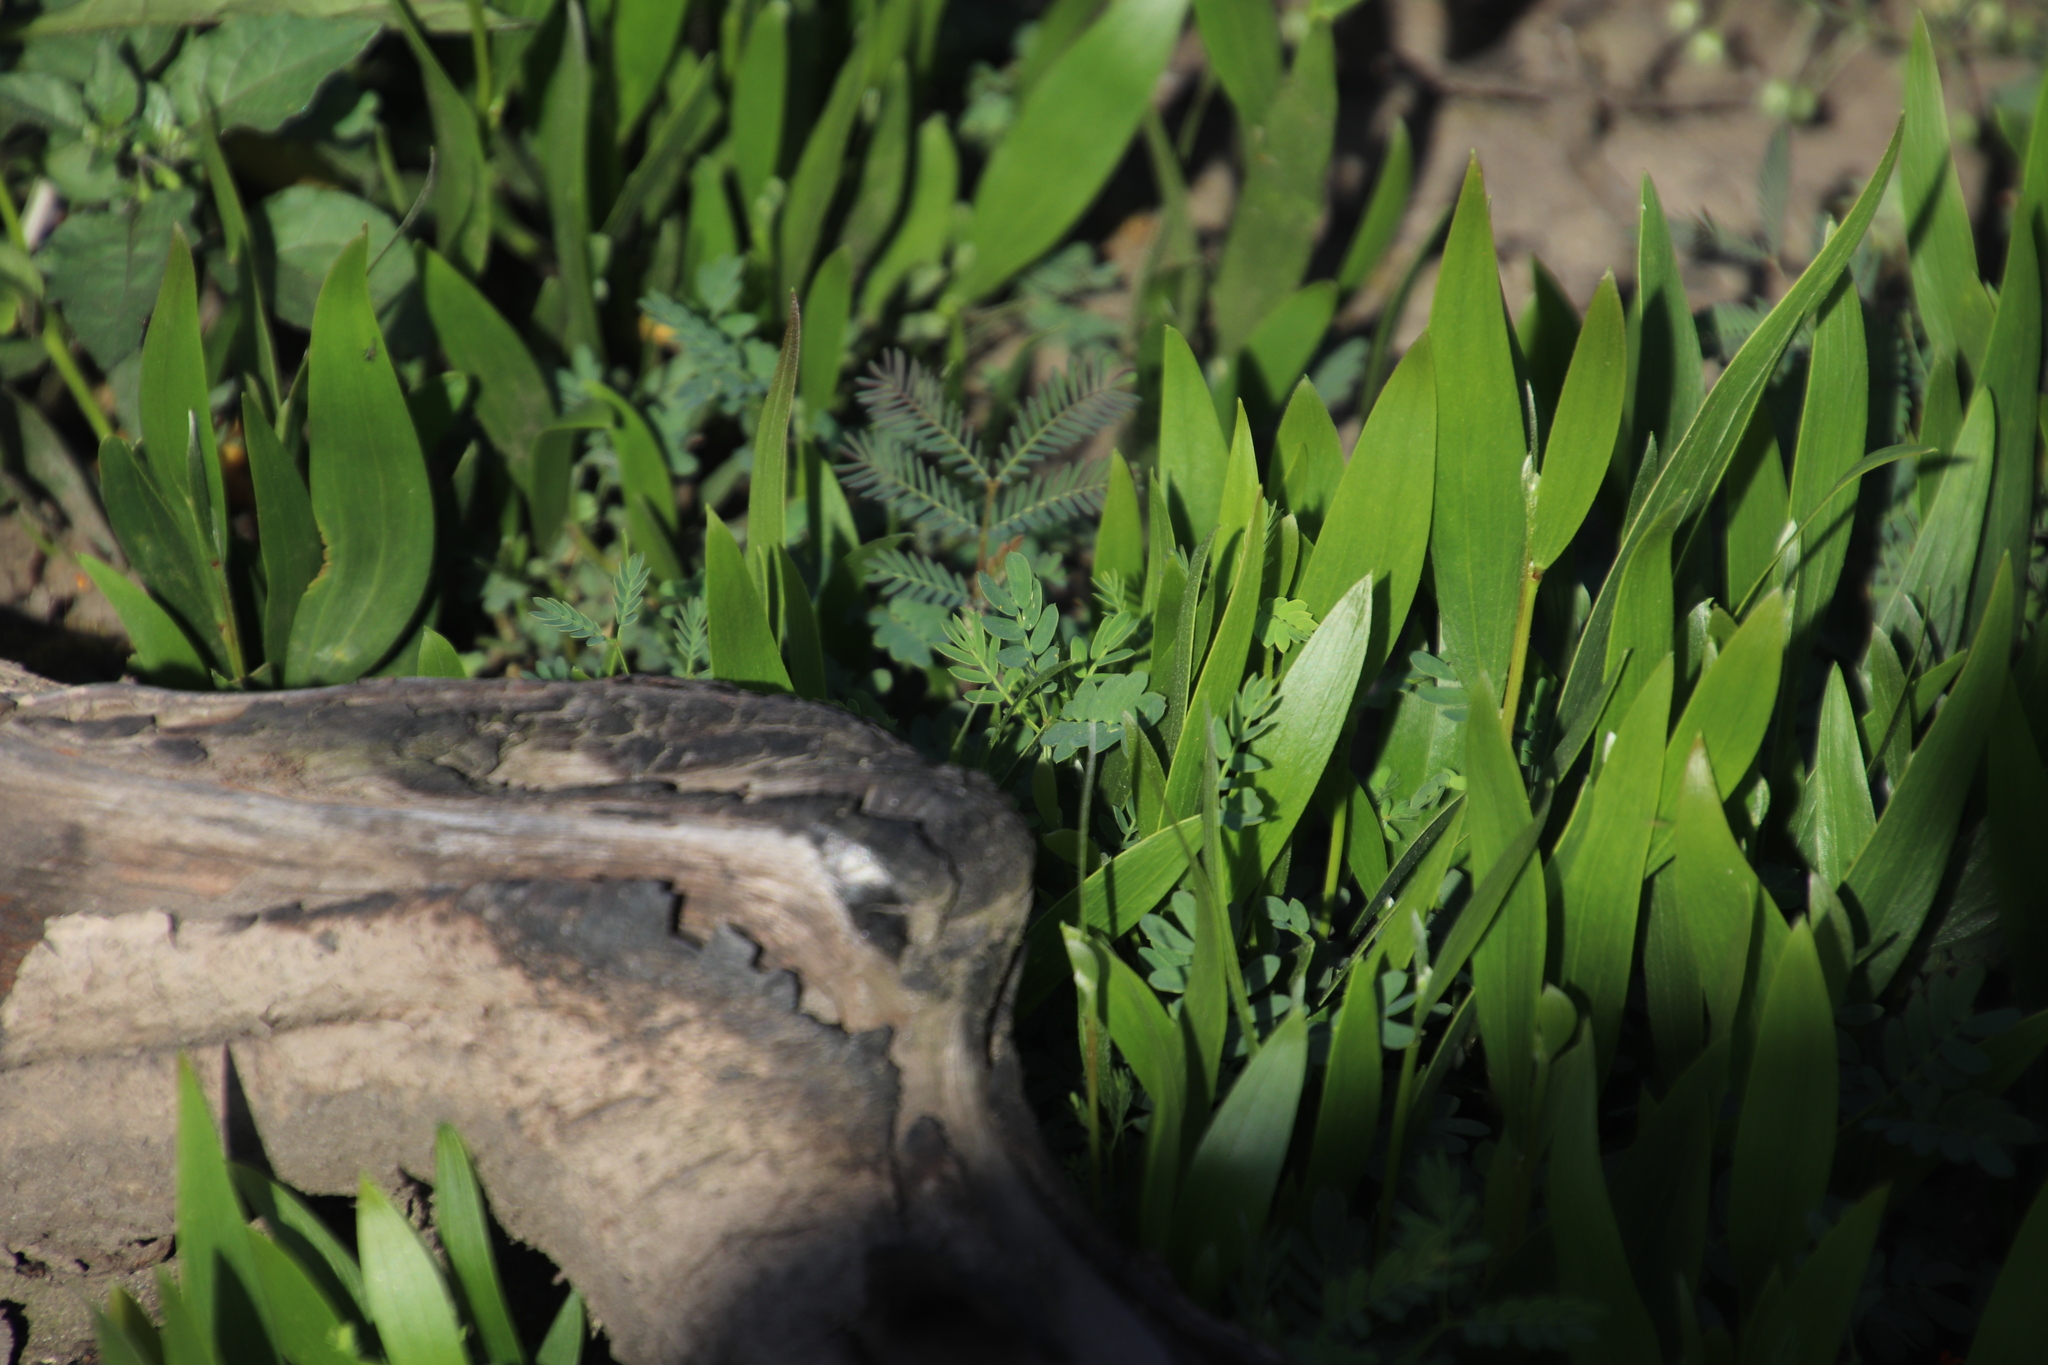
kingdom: Plantae
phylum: Tracheophyta
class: Magnoliopsida
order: Fabales
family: Fabaceae
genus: Acacia
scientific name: Acacia longifolia
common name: Sydney golden wattle
